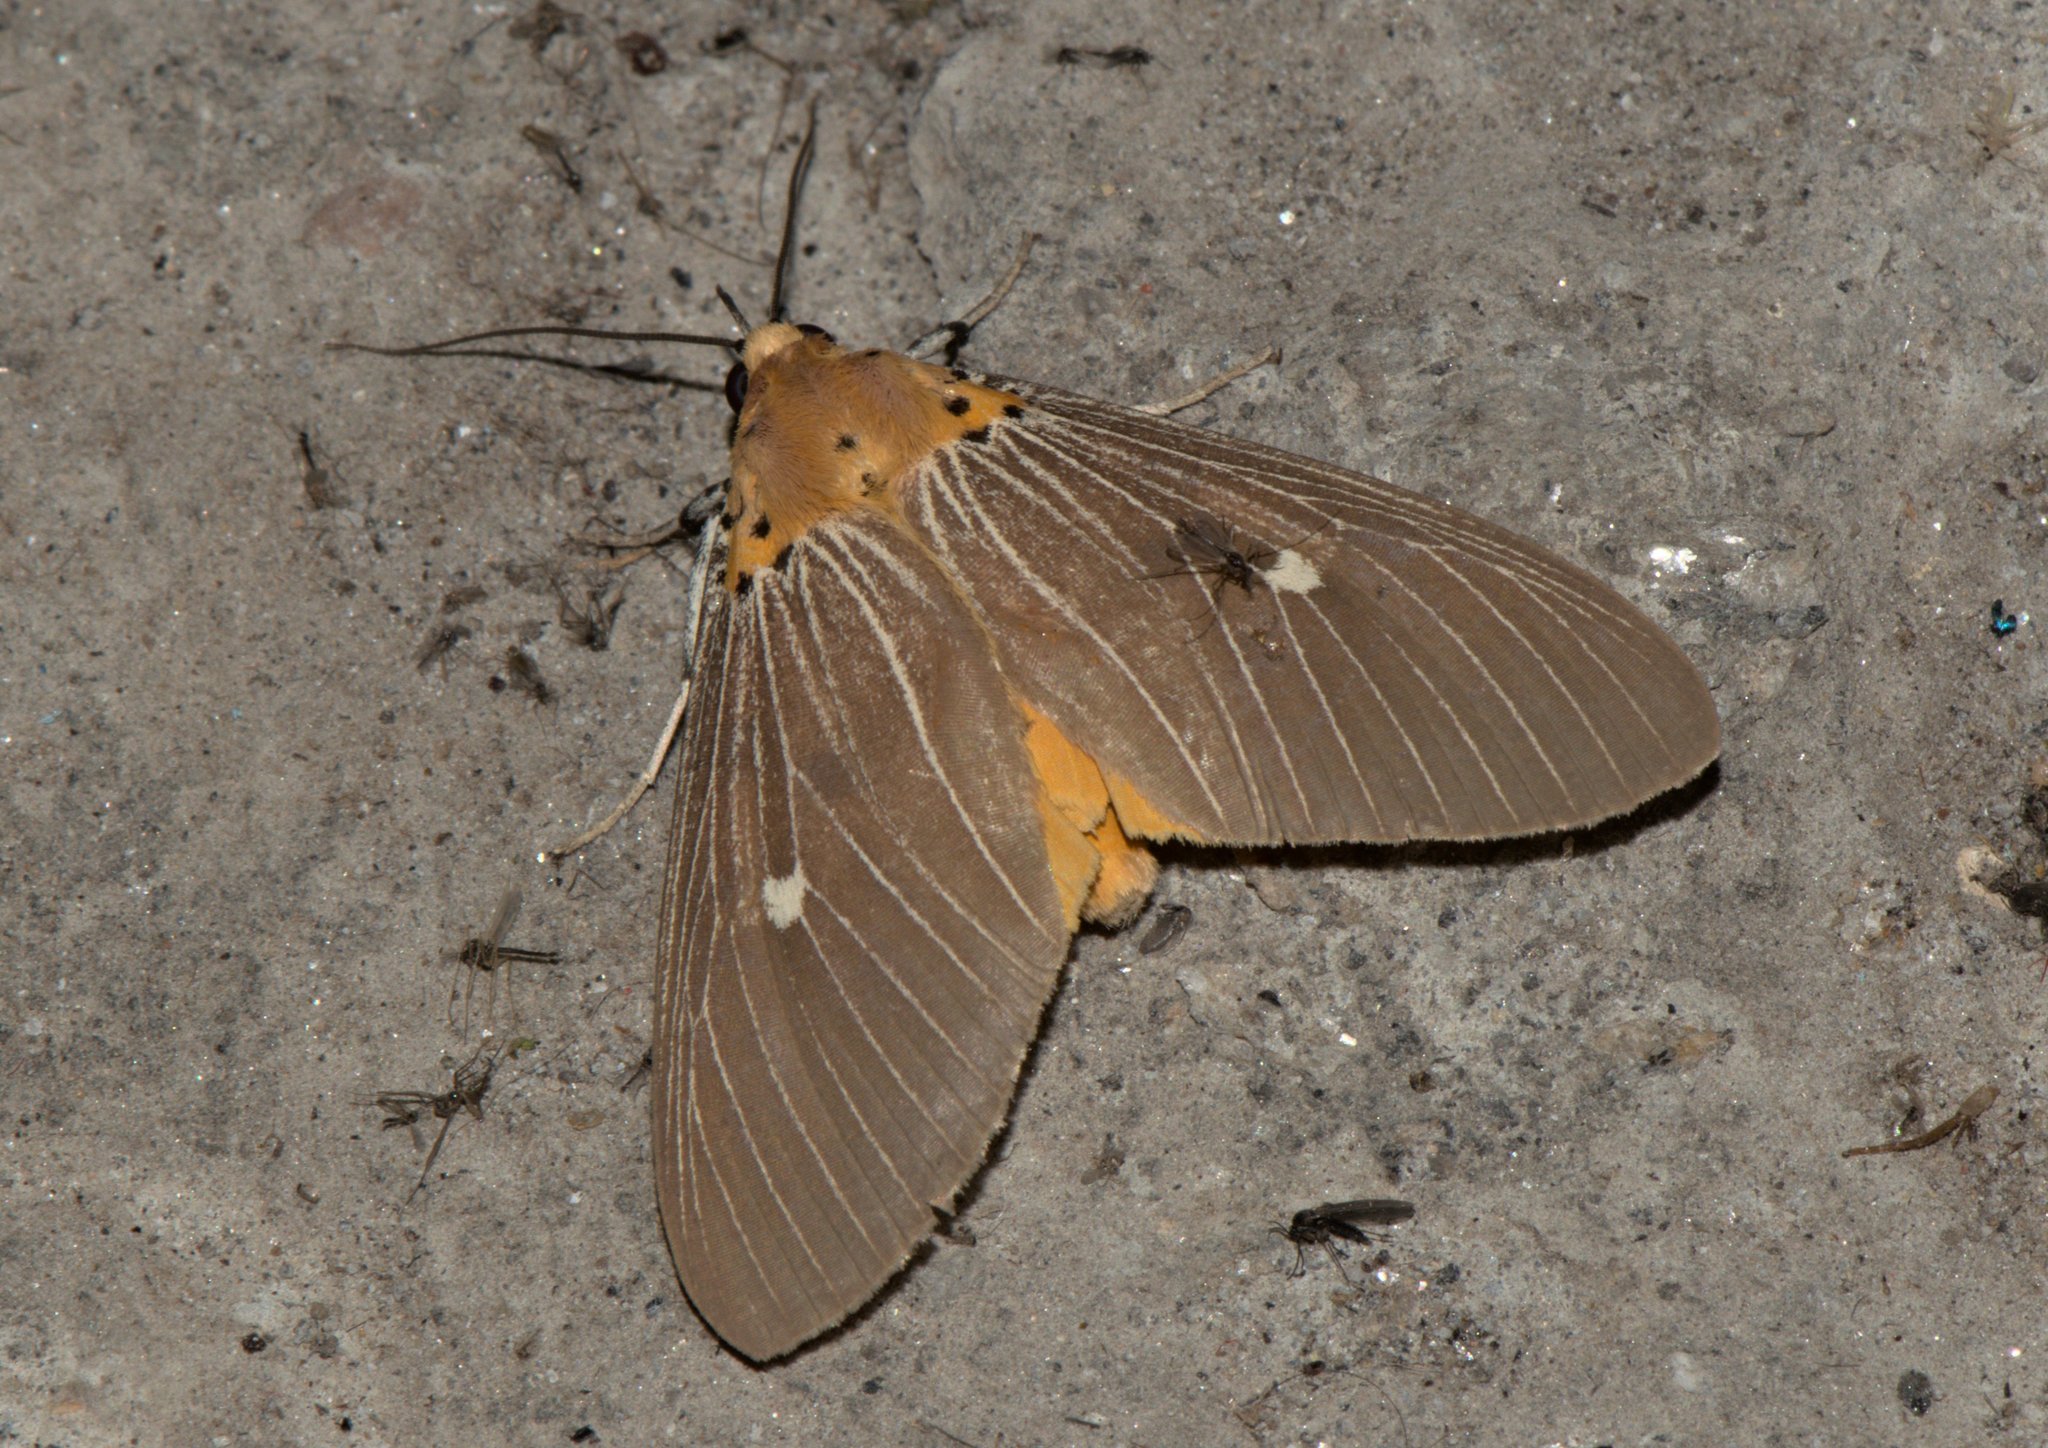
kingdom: Animalia
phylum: Arthropoda
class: Insecta
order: Lepidoptera
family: Erebidae
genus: Asota
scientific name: Asota caricae
